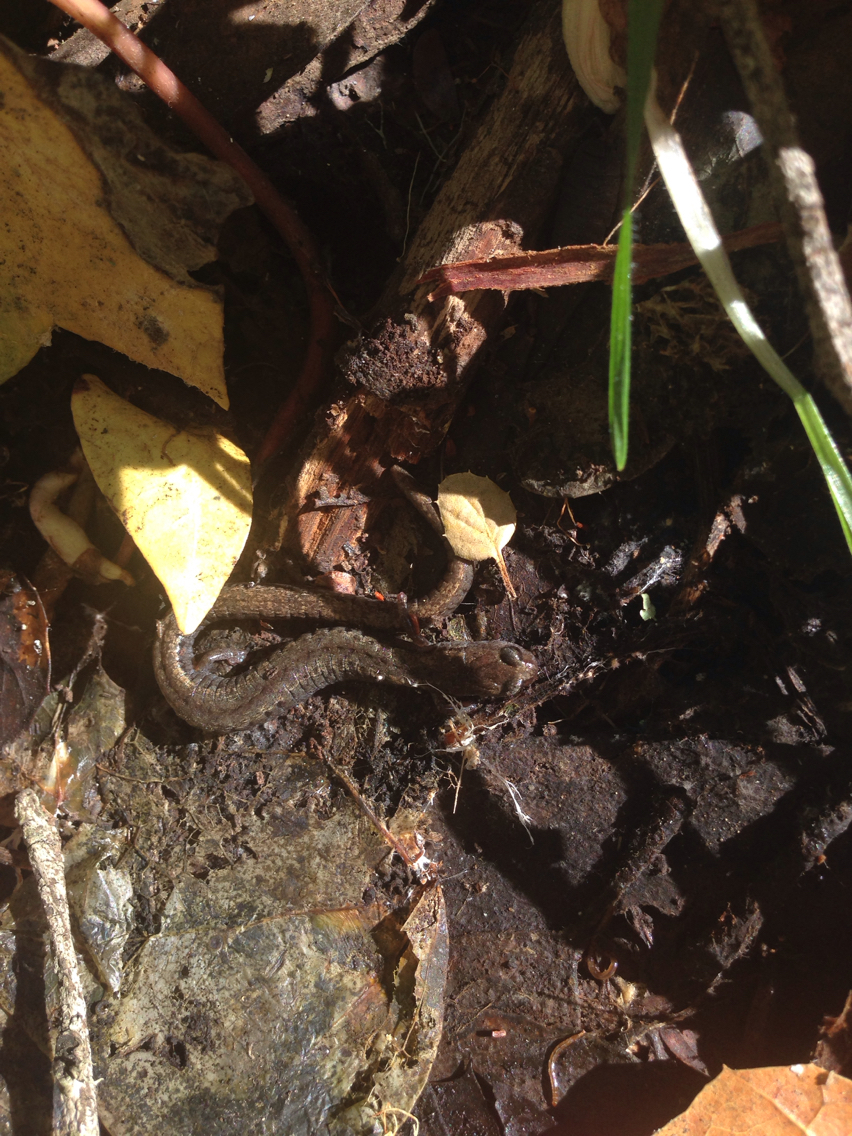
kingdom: Animalia
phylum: Chordata
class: Amphibia
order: Caudata
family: Plethodontidae
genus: Batrachoseps
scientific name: Batrachoseps attenuatus
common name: California slender salamander
